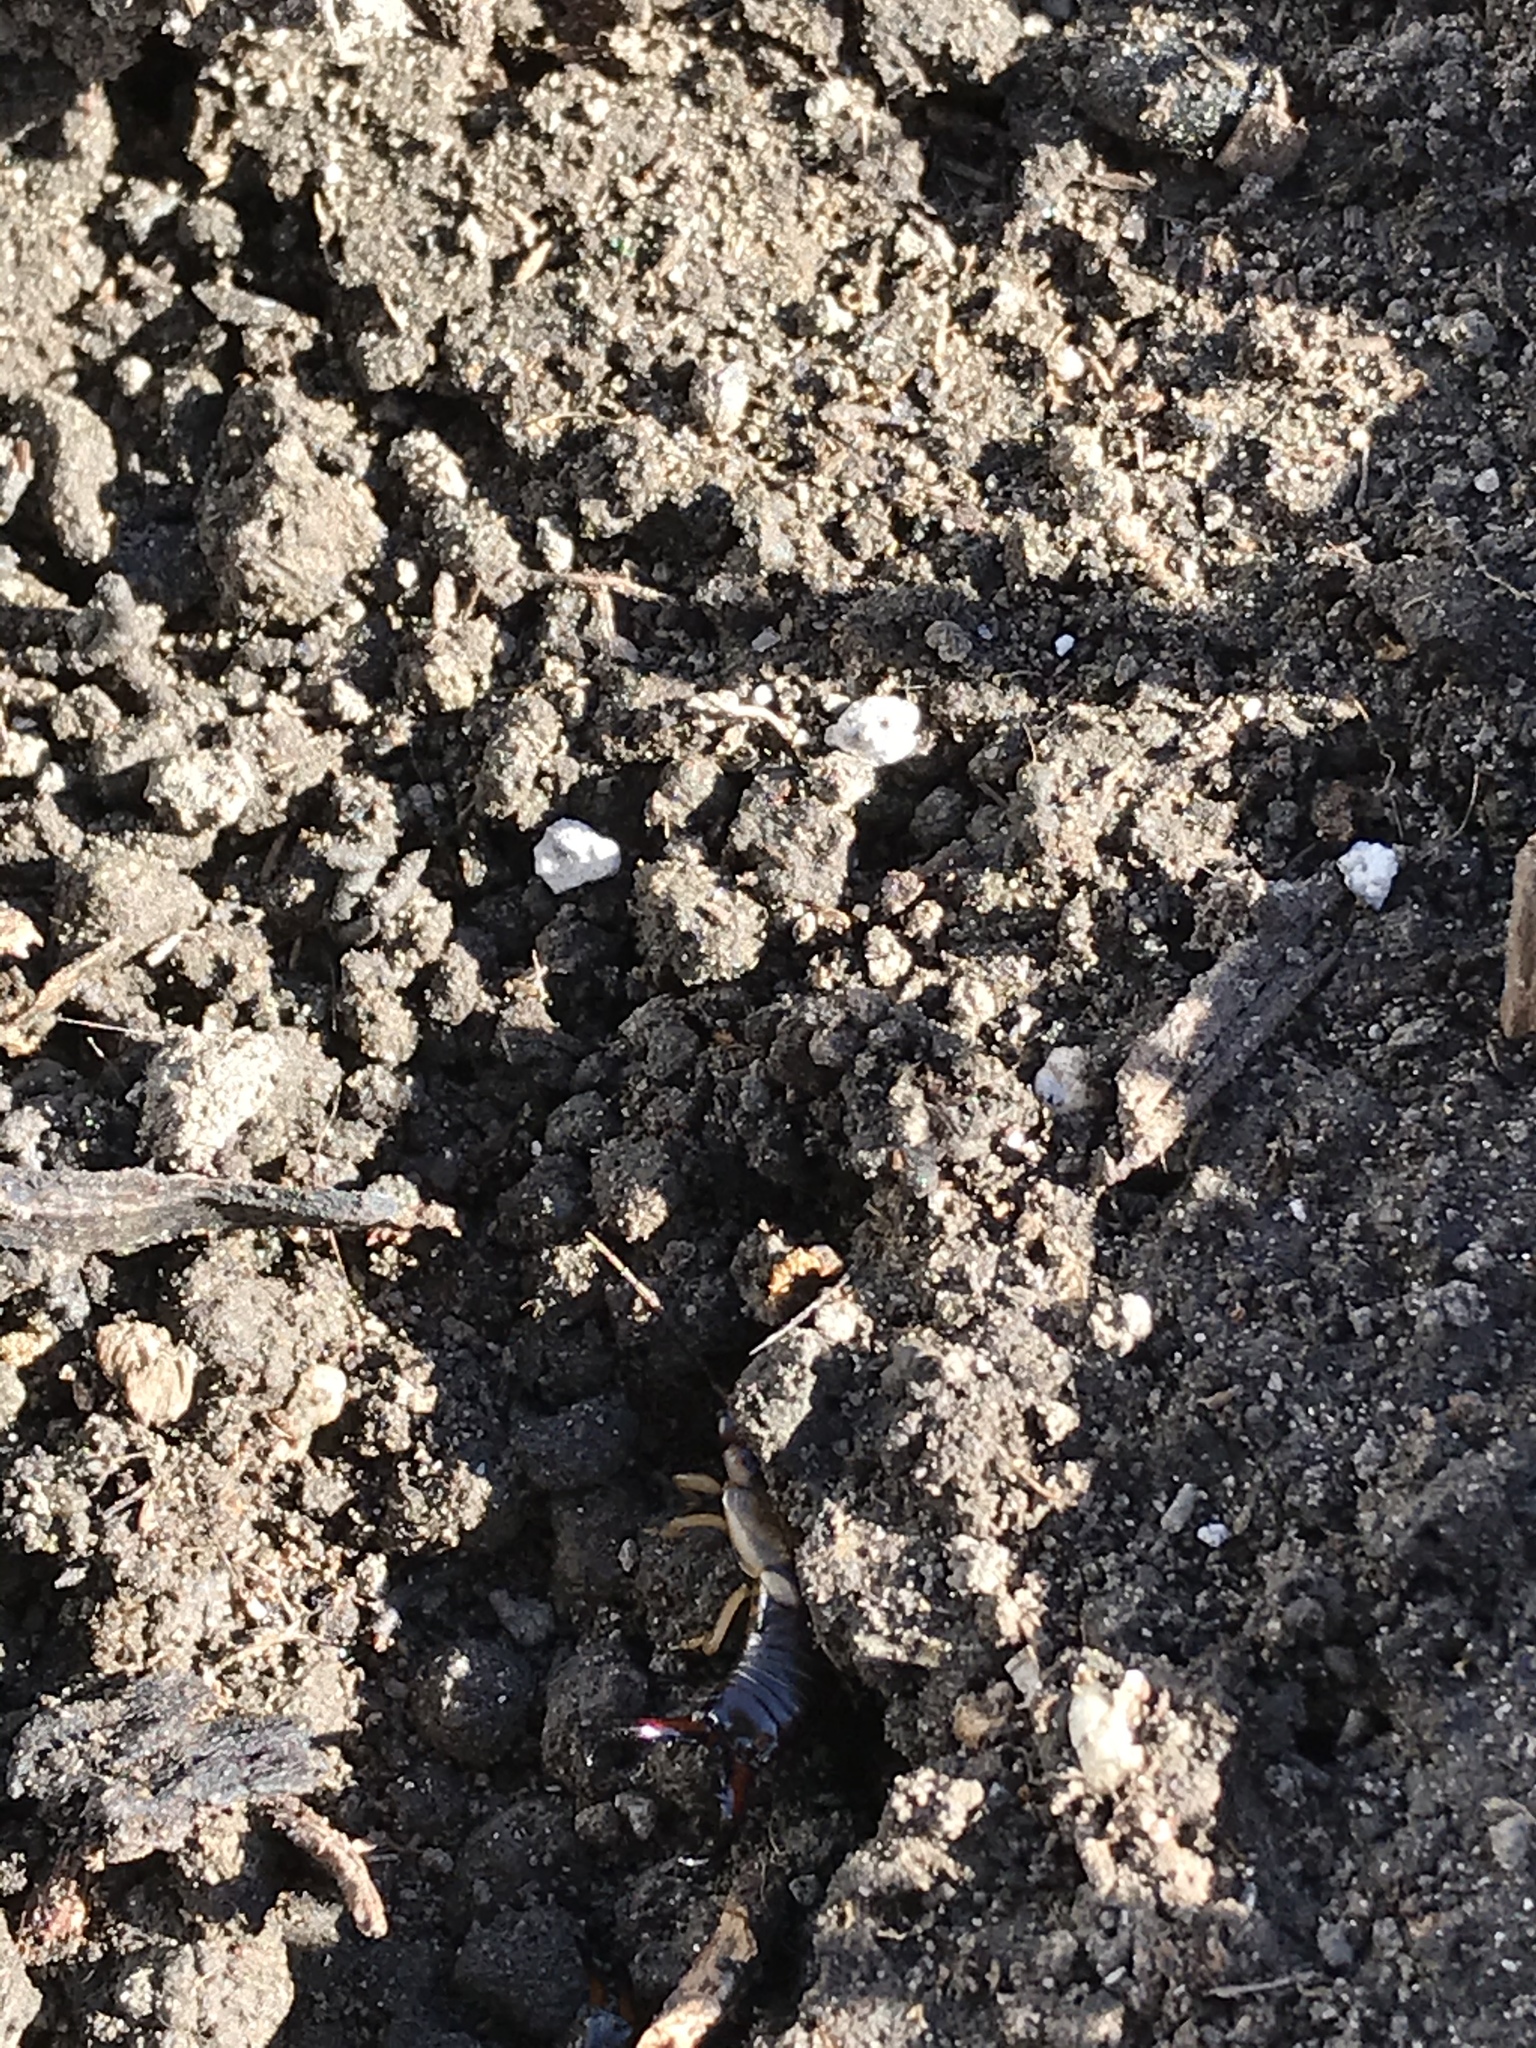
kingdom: Animalia
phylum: Arthropoda
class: Insecta
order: Dermaptera
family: Forficulidae
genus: Forficula
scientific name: Forficula
